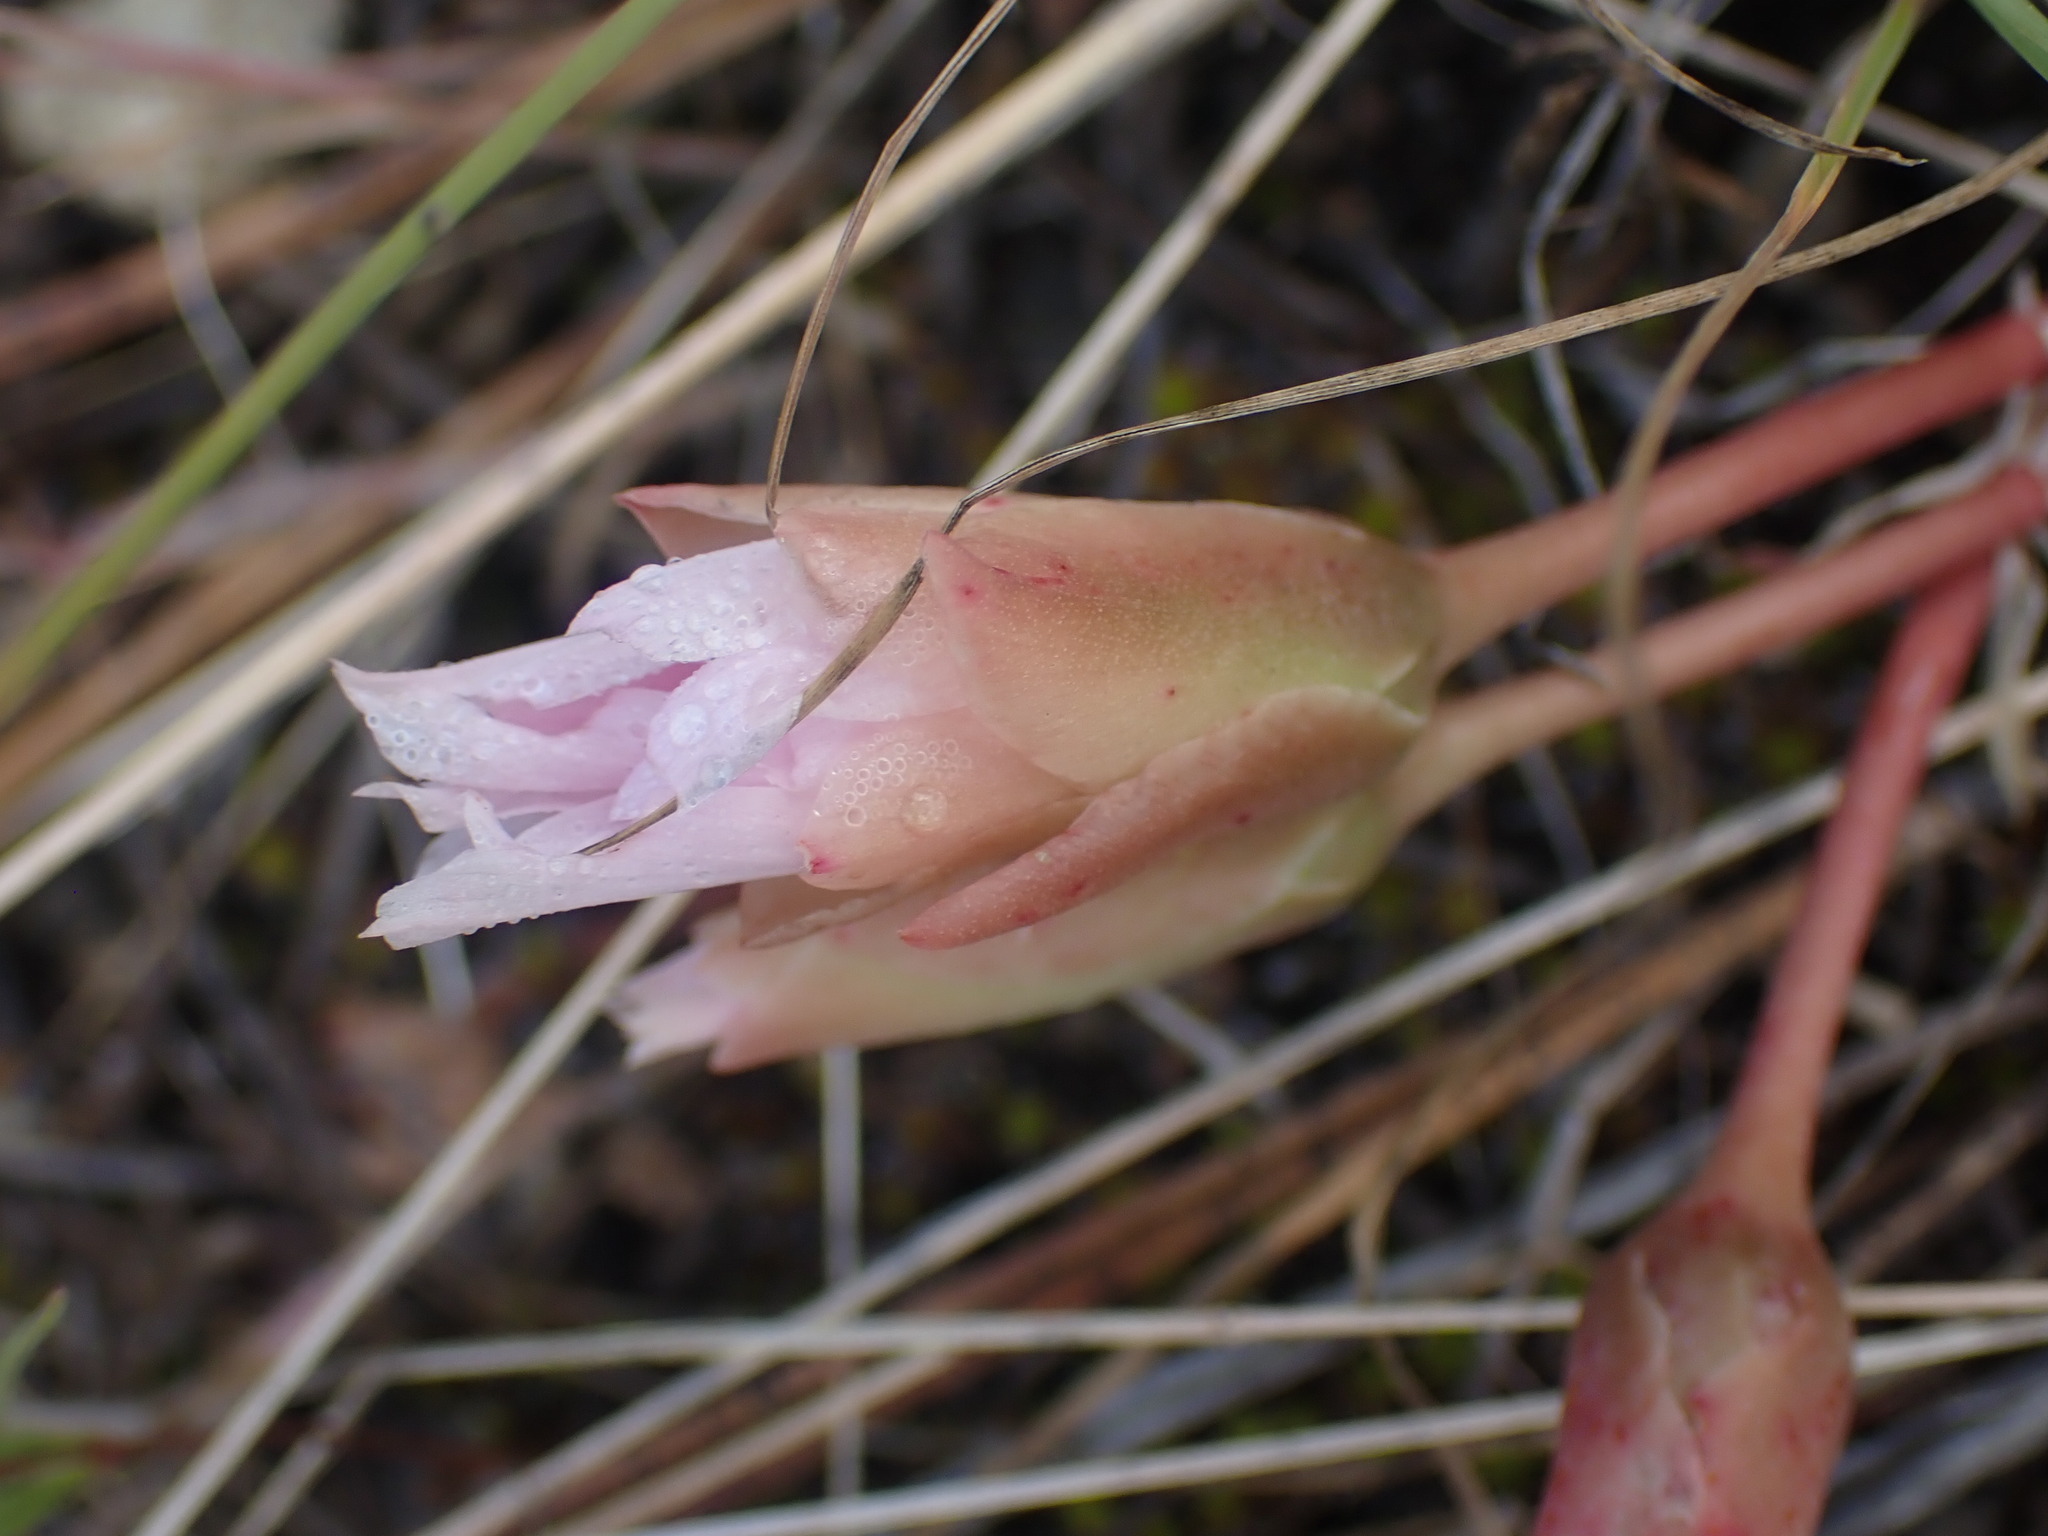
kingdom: Plantae
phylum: Tracheophyta
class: Magnoliopsida
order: Caryophyllales
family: Montiaceae
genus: Lewisia
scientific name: Lewisia rediviva
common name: Bitter-root
